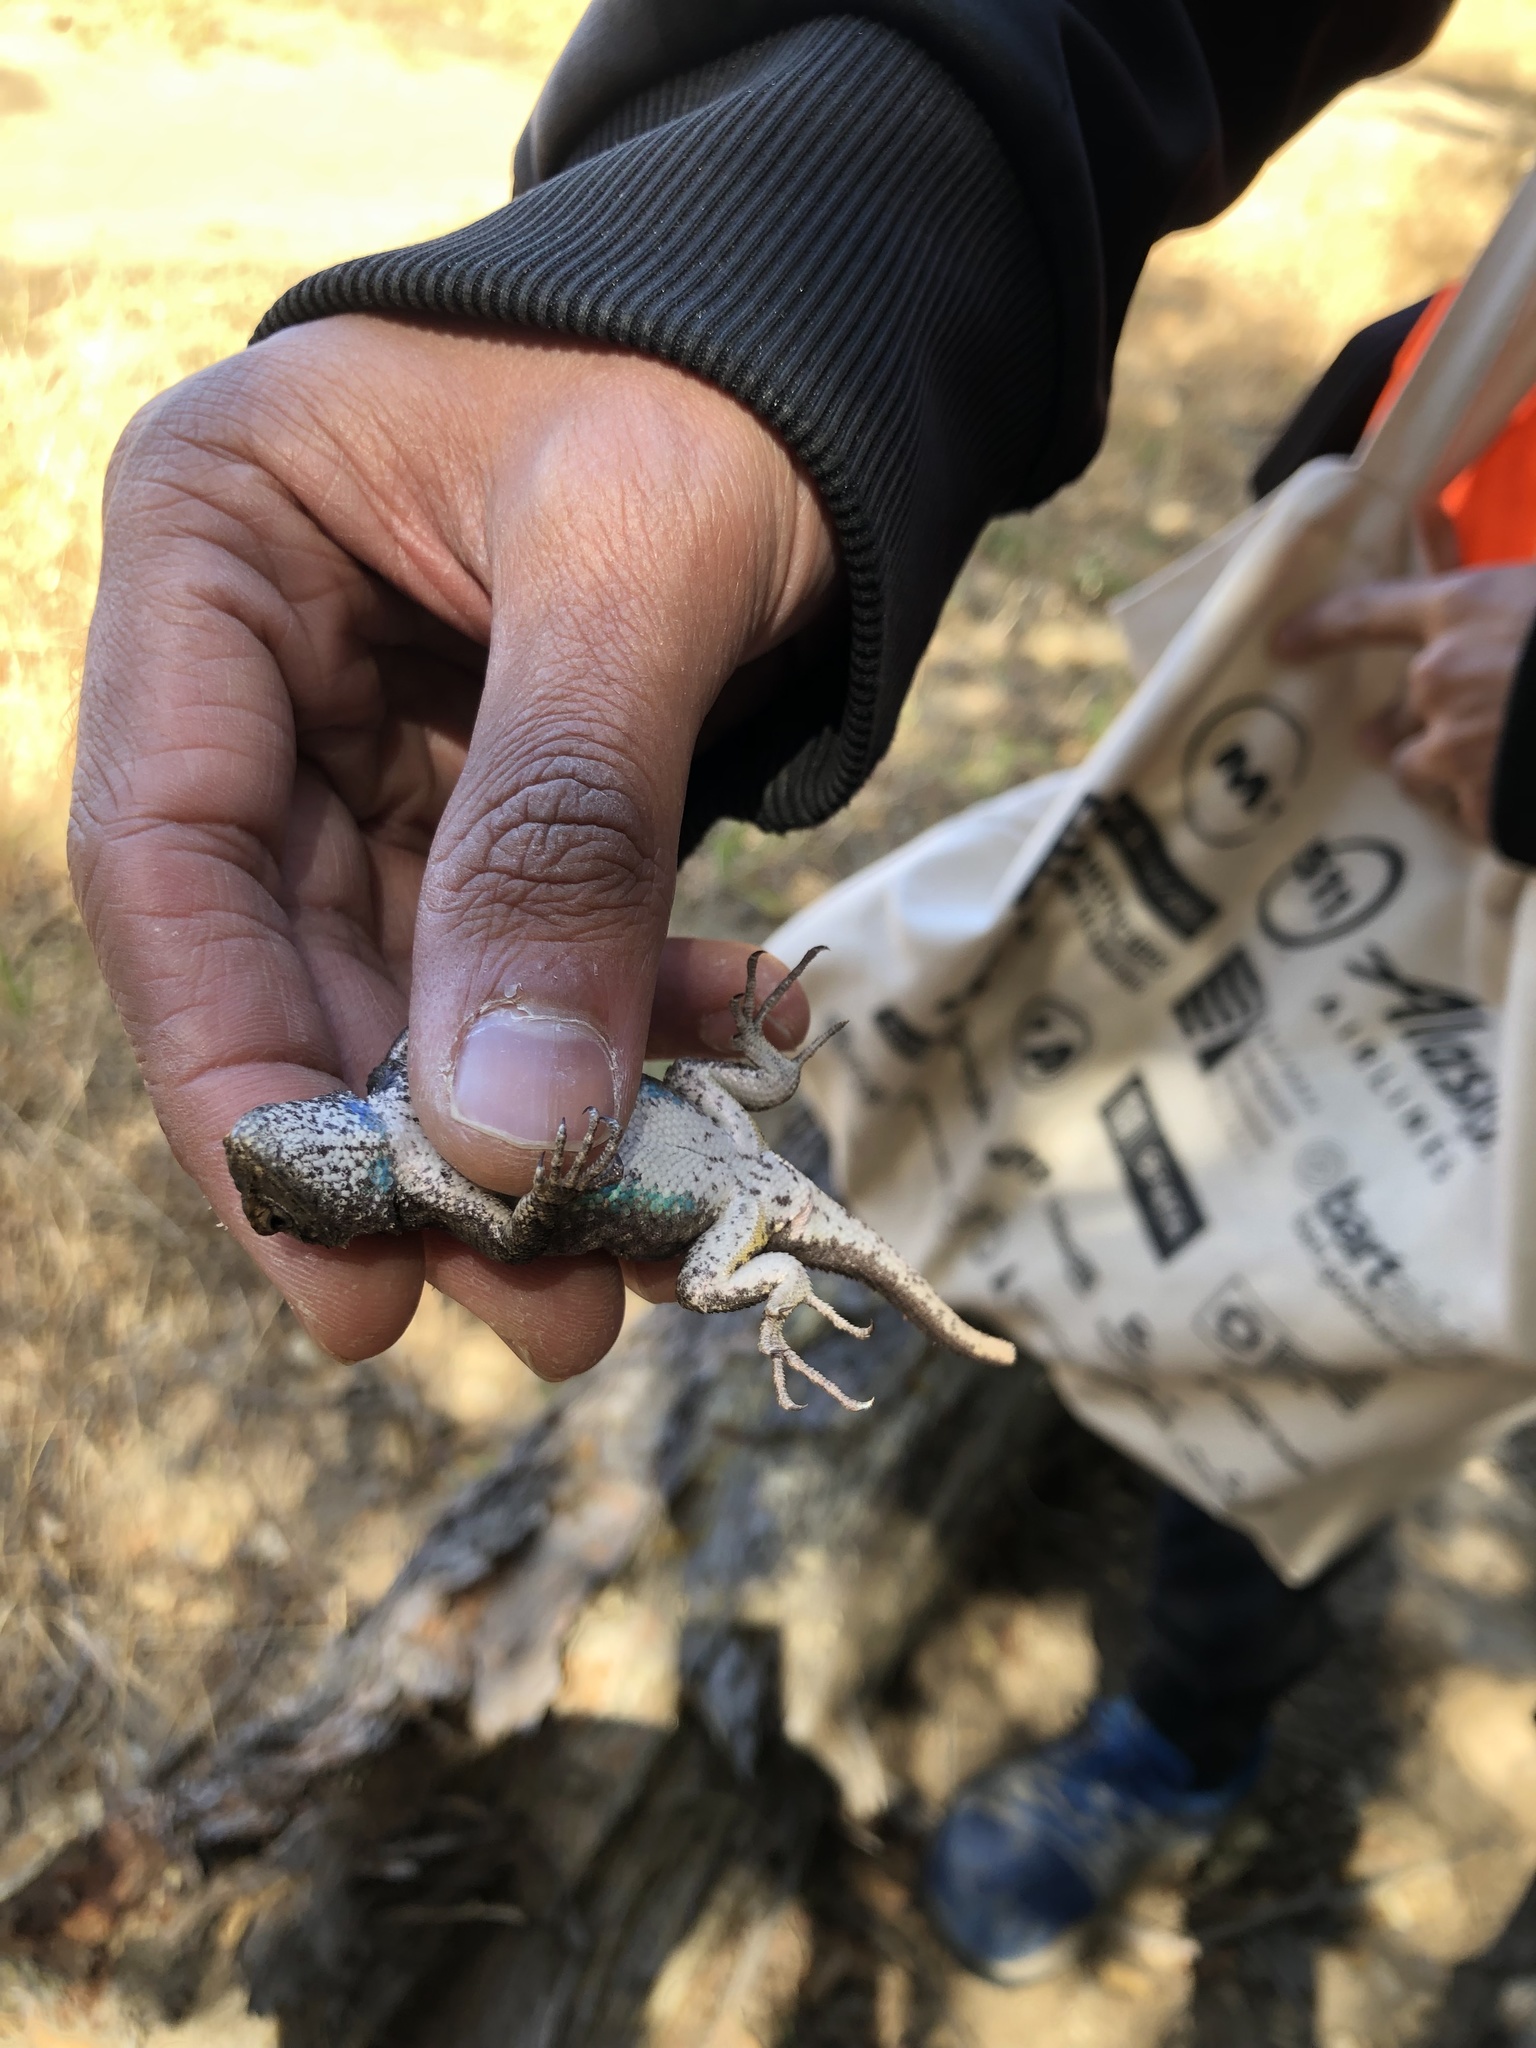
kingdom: Animalia
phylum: Chordata
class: Squamata
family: Phrynosomatidae
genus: Sceloporus
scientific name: Sceloporus occidentalis
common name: Western fence lizard
